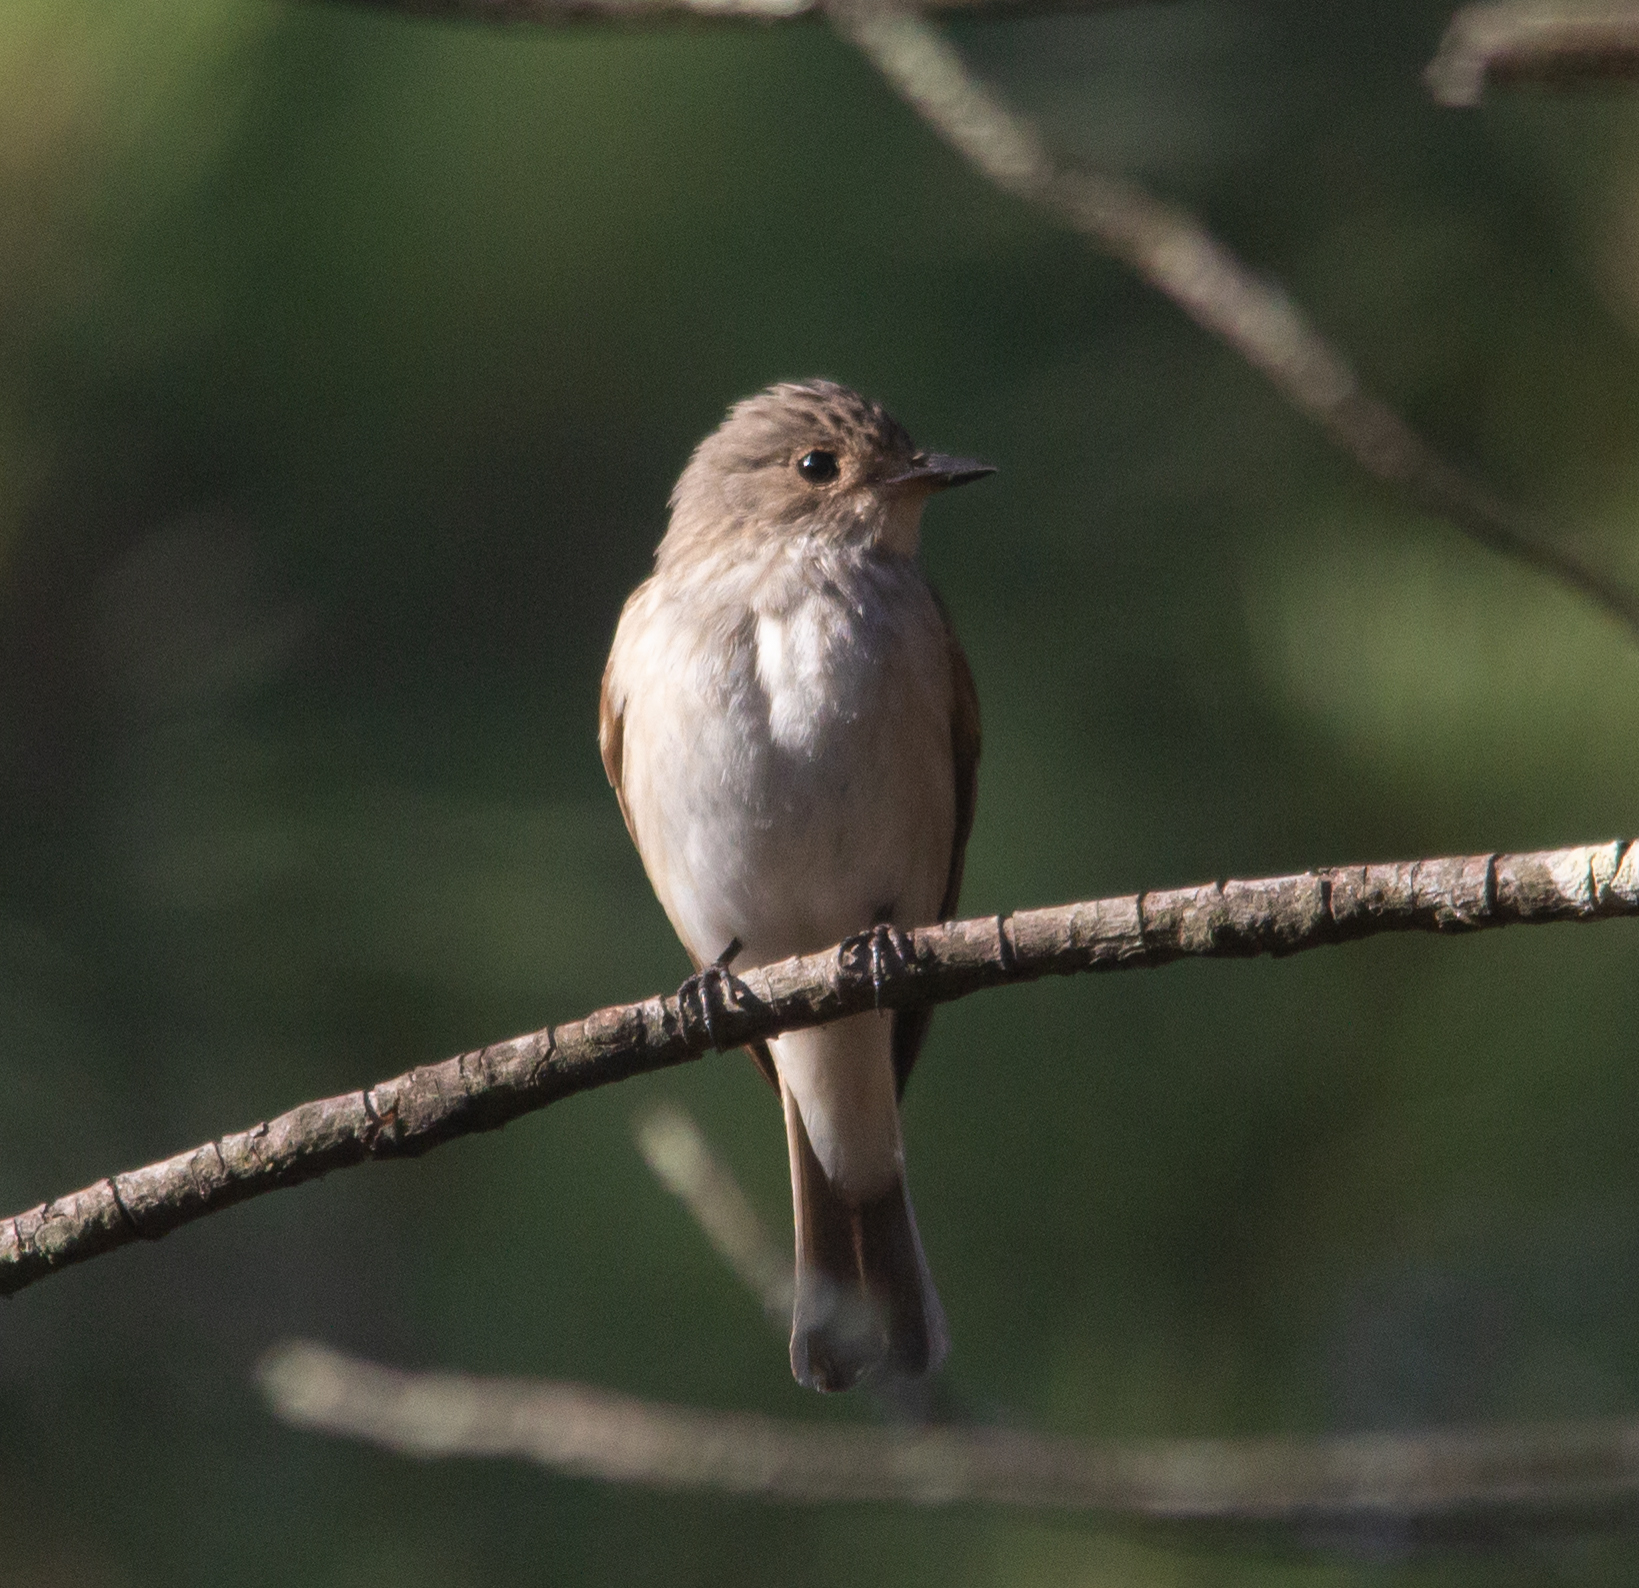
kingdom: Animalia
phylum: Chordata
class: Aves
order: Passeriformes
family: Muscicapidae
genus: Muscicapa
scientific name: Muscicapa striata
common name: Spotted flycatcher
